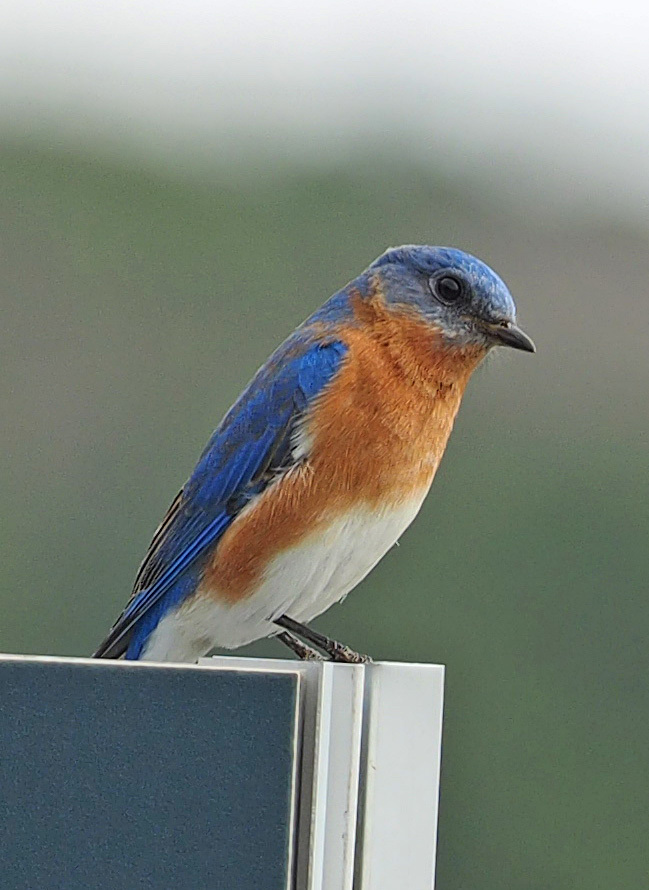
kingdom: Animalia
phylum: Chordata
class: Aves
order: Passeriformes
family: Turdidae
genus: Sialia
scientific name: Sialia sialis
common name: Eastern bluebird
